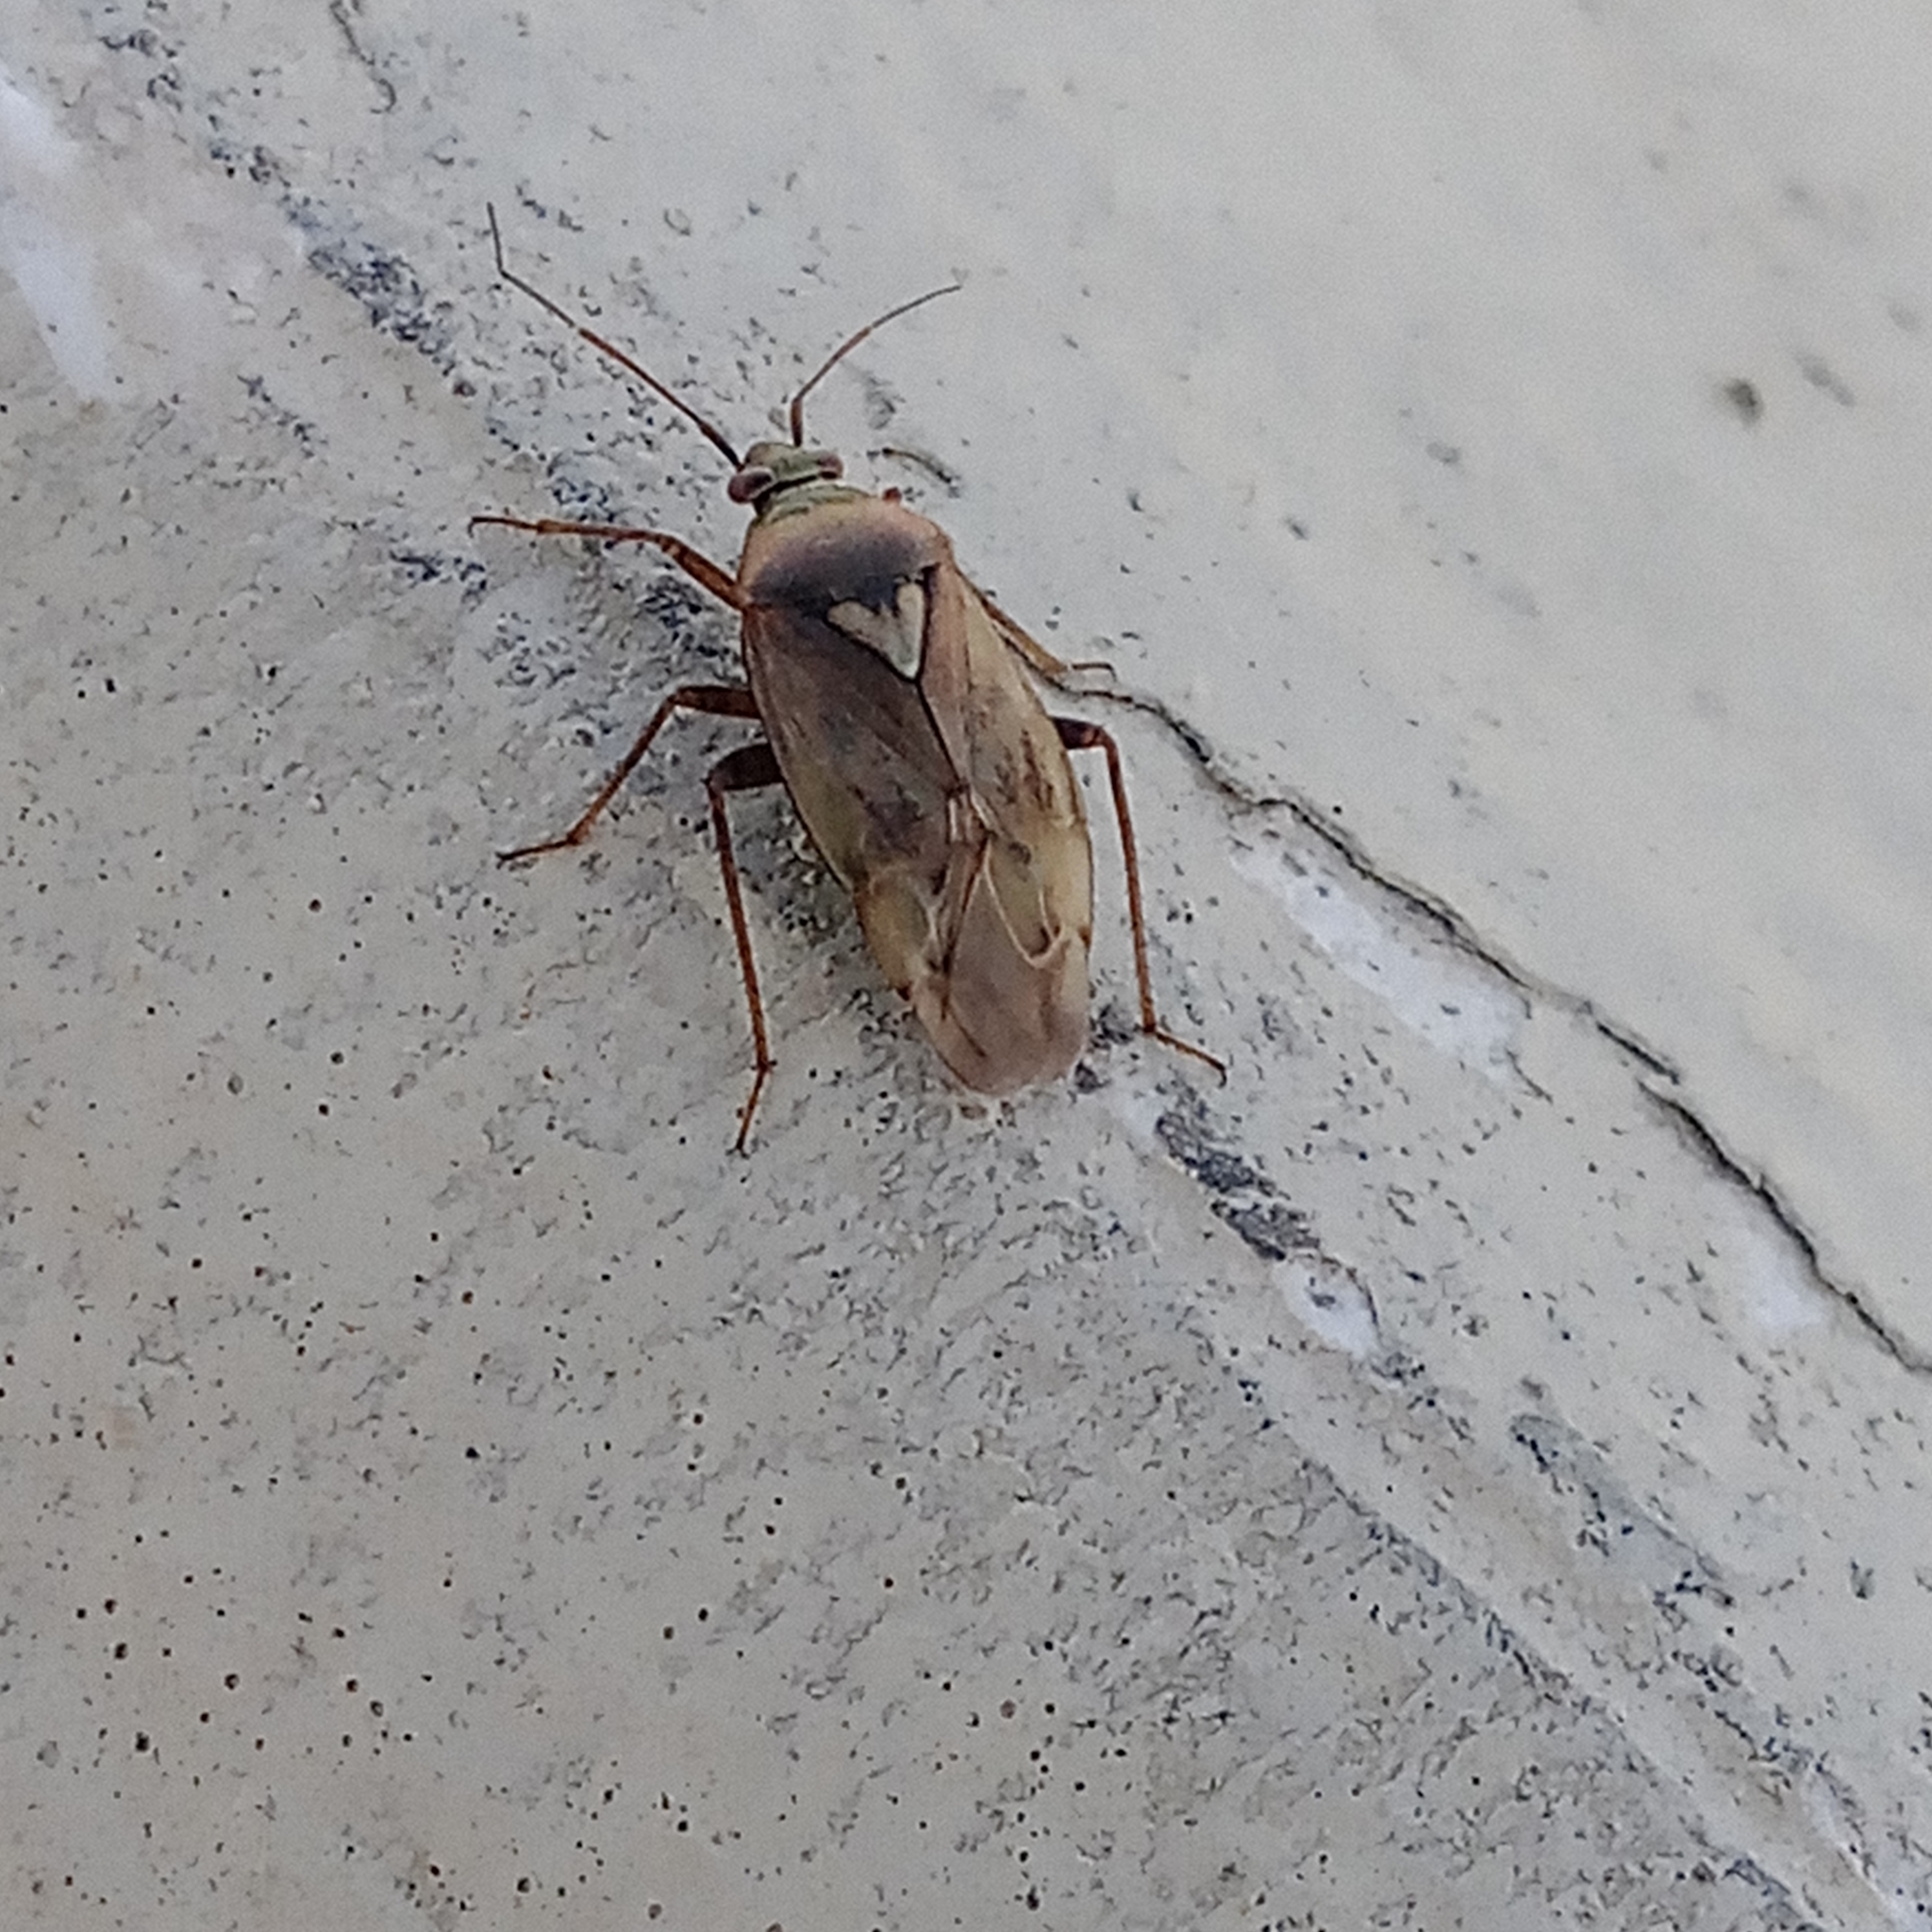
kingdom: Animalia
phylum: Arthropoda
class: Insecta
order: Hemiptera
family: Miridae
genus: Lygus
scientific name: Lygus rugulipennis
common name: European tarnished plant bug
